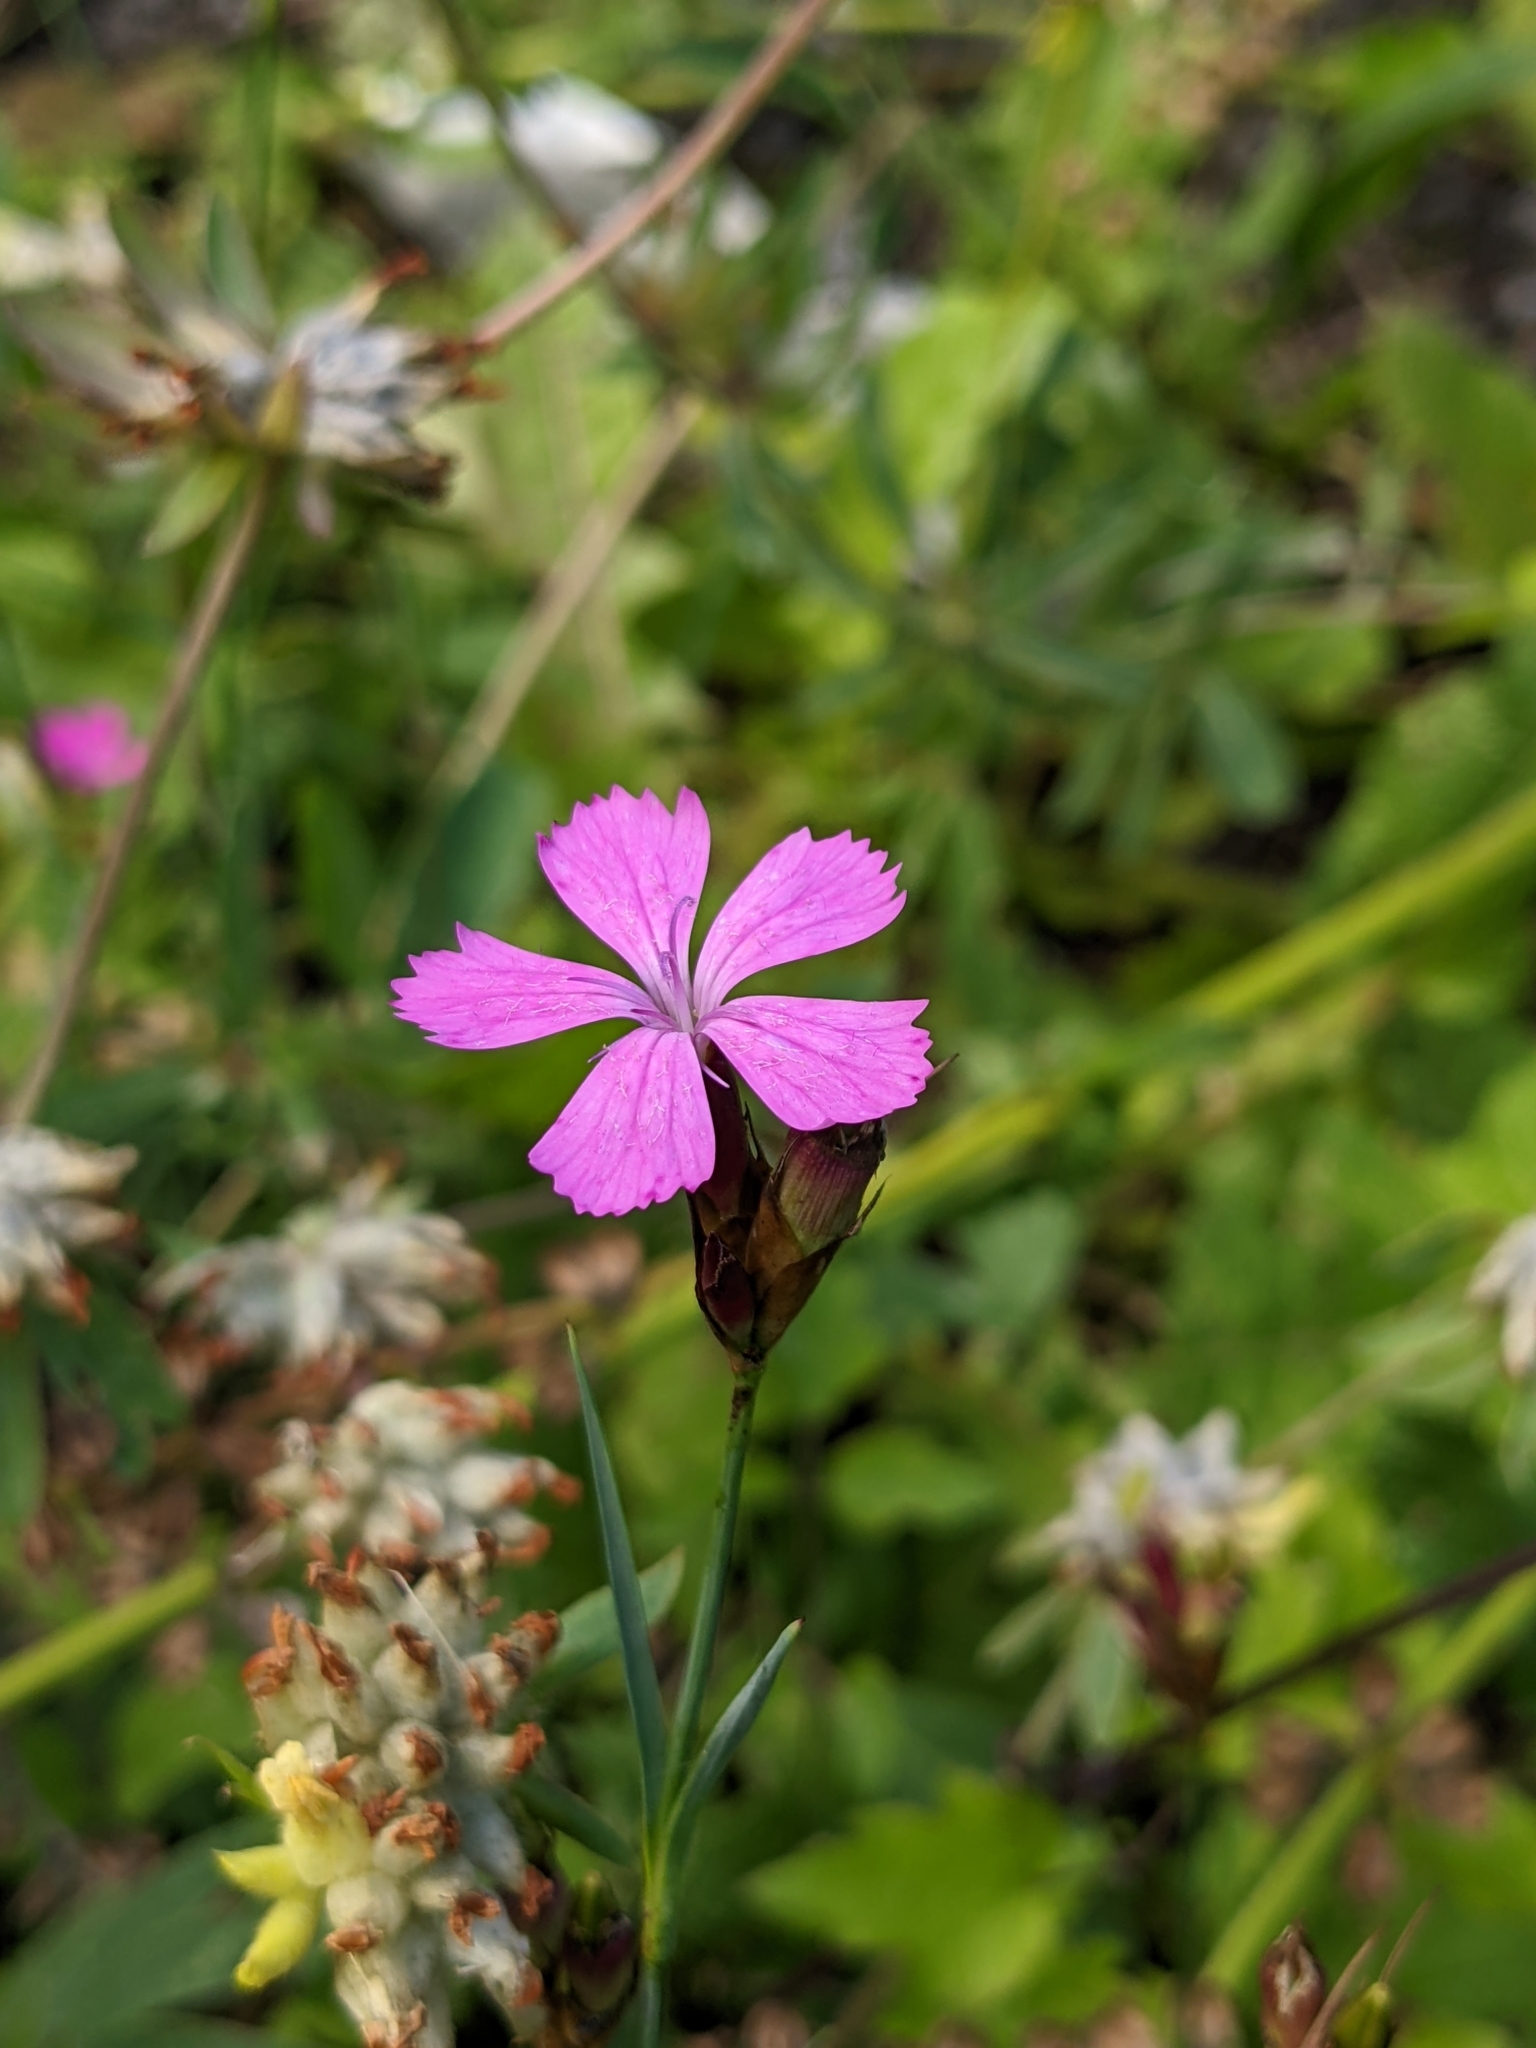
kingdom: Plantae
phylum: Tracheophyta
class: Magnoliopsida
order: Caryophyllales
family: Caryophyllaceae
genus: Dianthus
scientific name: Dianthus carthusianorum
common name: Carthusian pink
